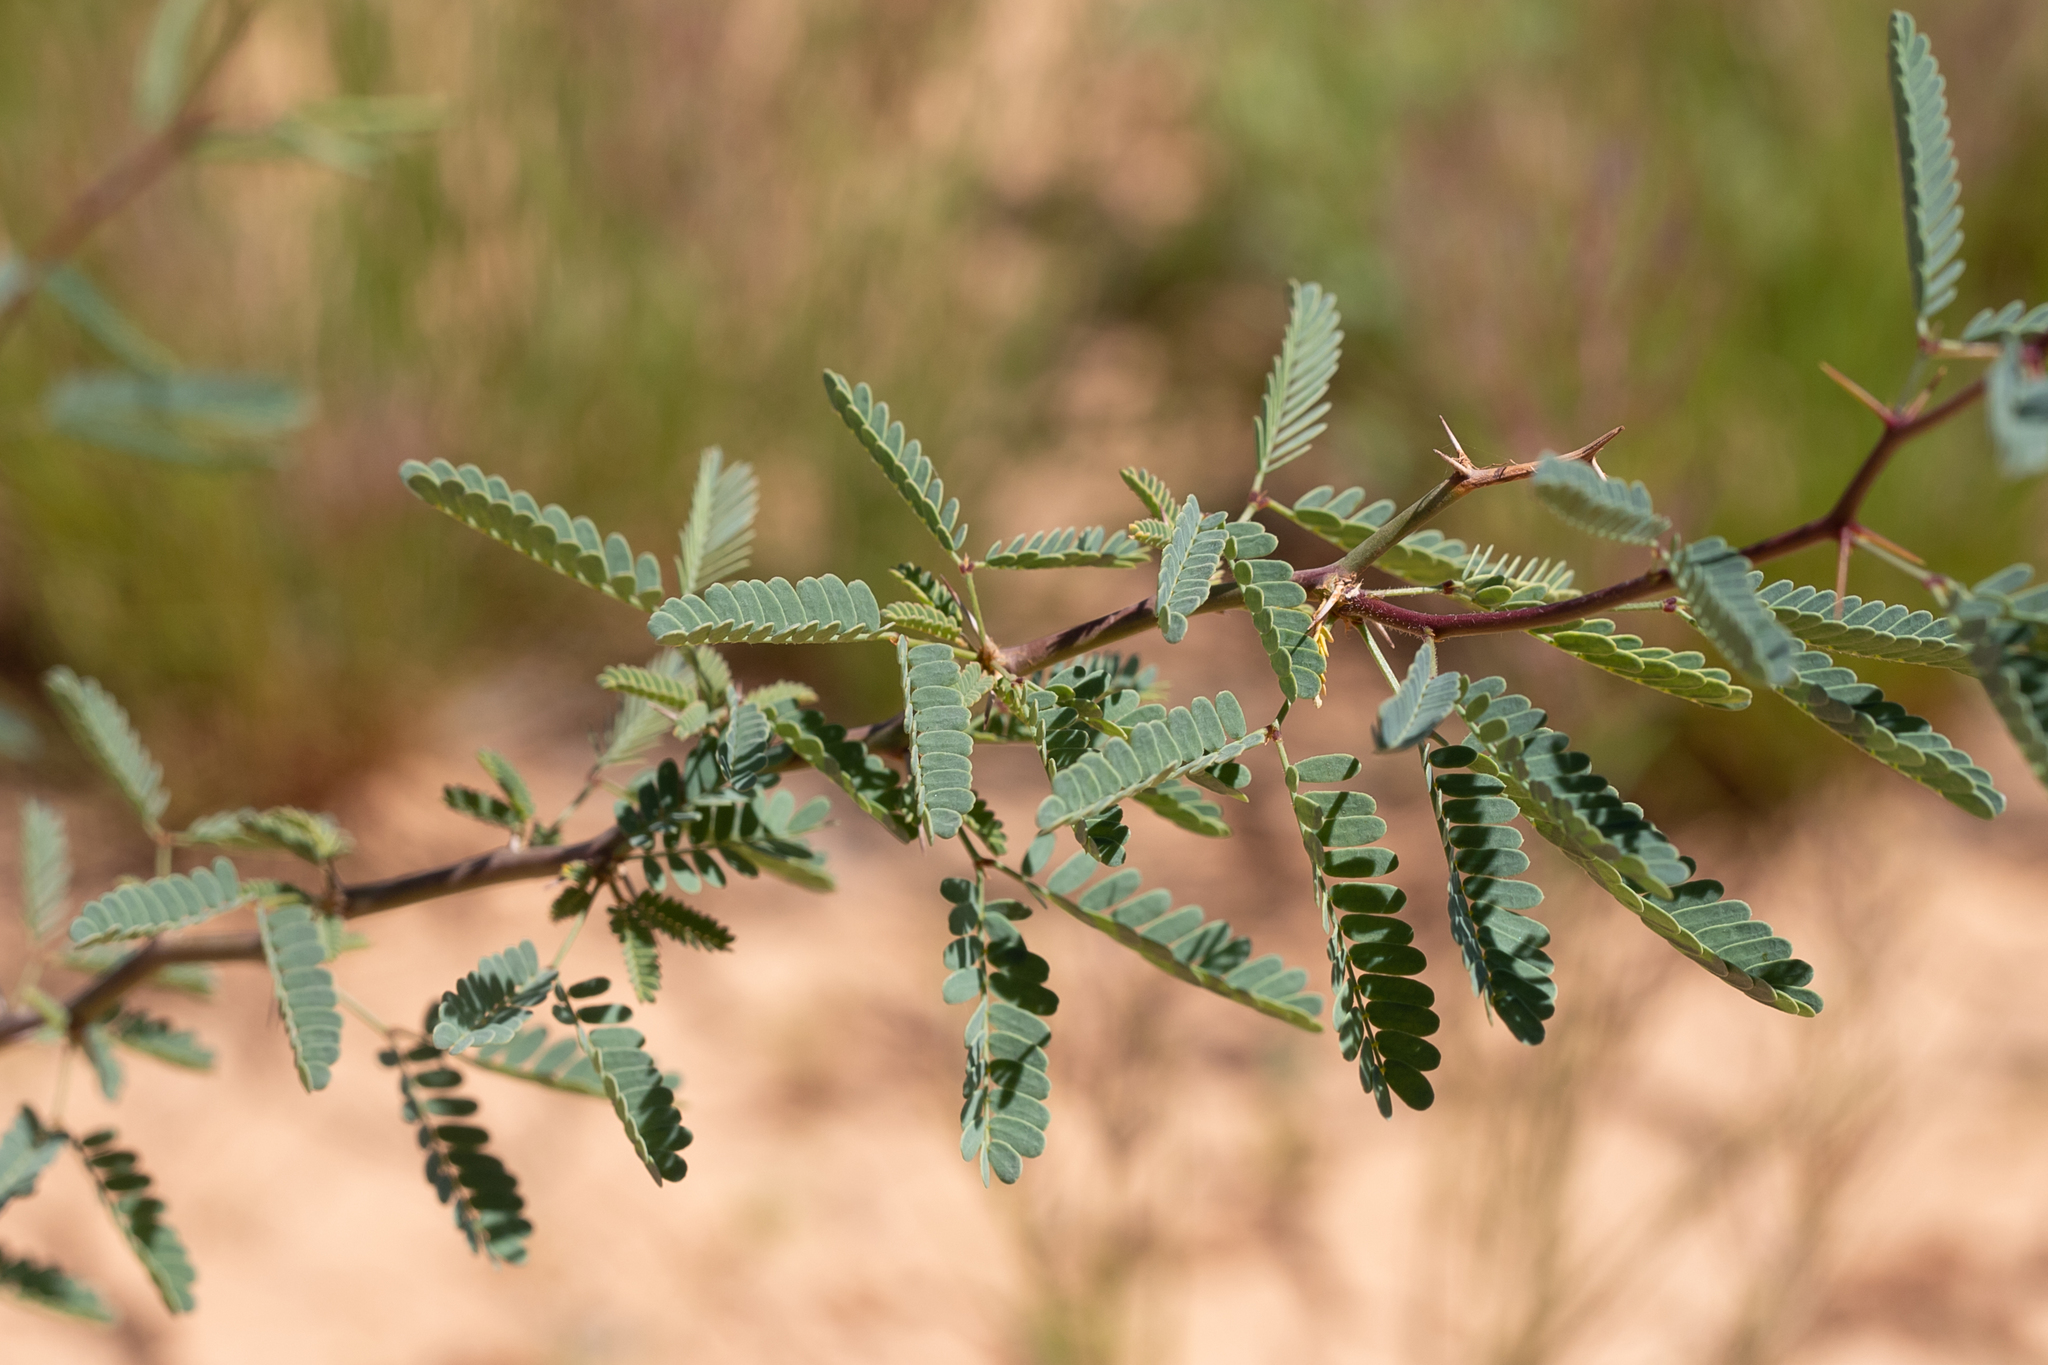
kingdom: Plantae
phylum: Tracheophyta
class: Magnoliopsida
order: Fabales
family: Fabaceae
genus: Vachellia
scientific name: Vachellia farnesiana
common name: Sweet acacia
